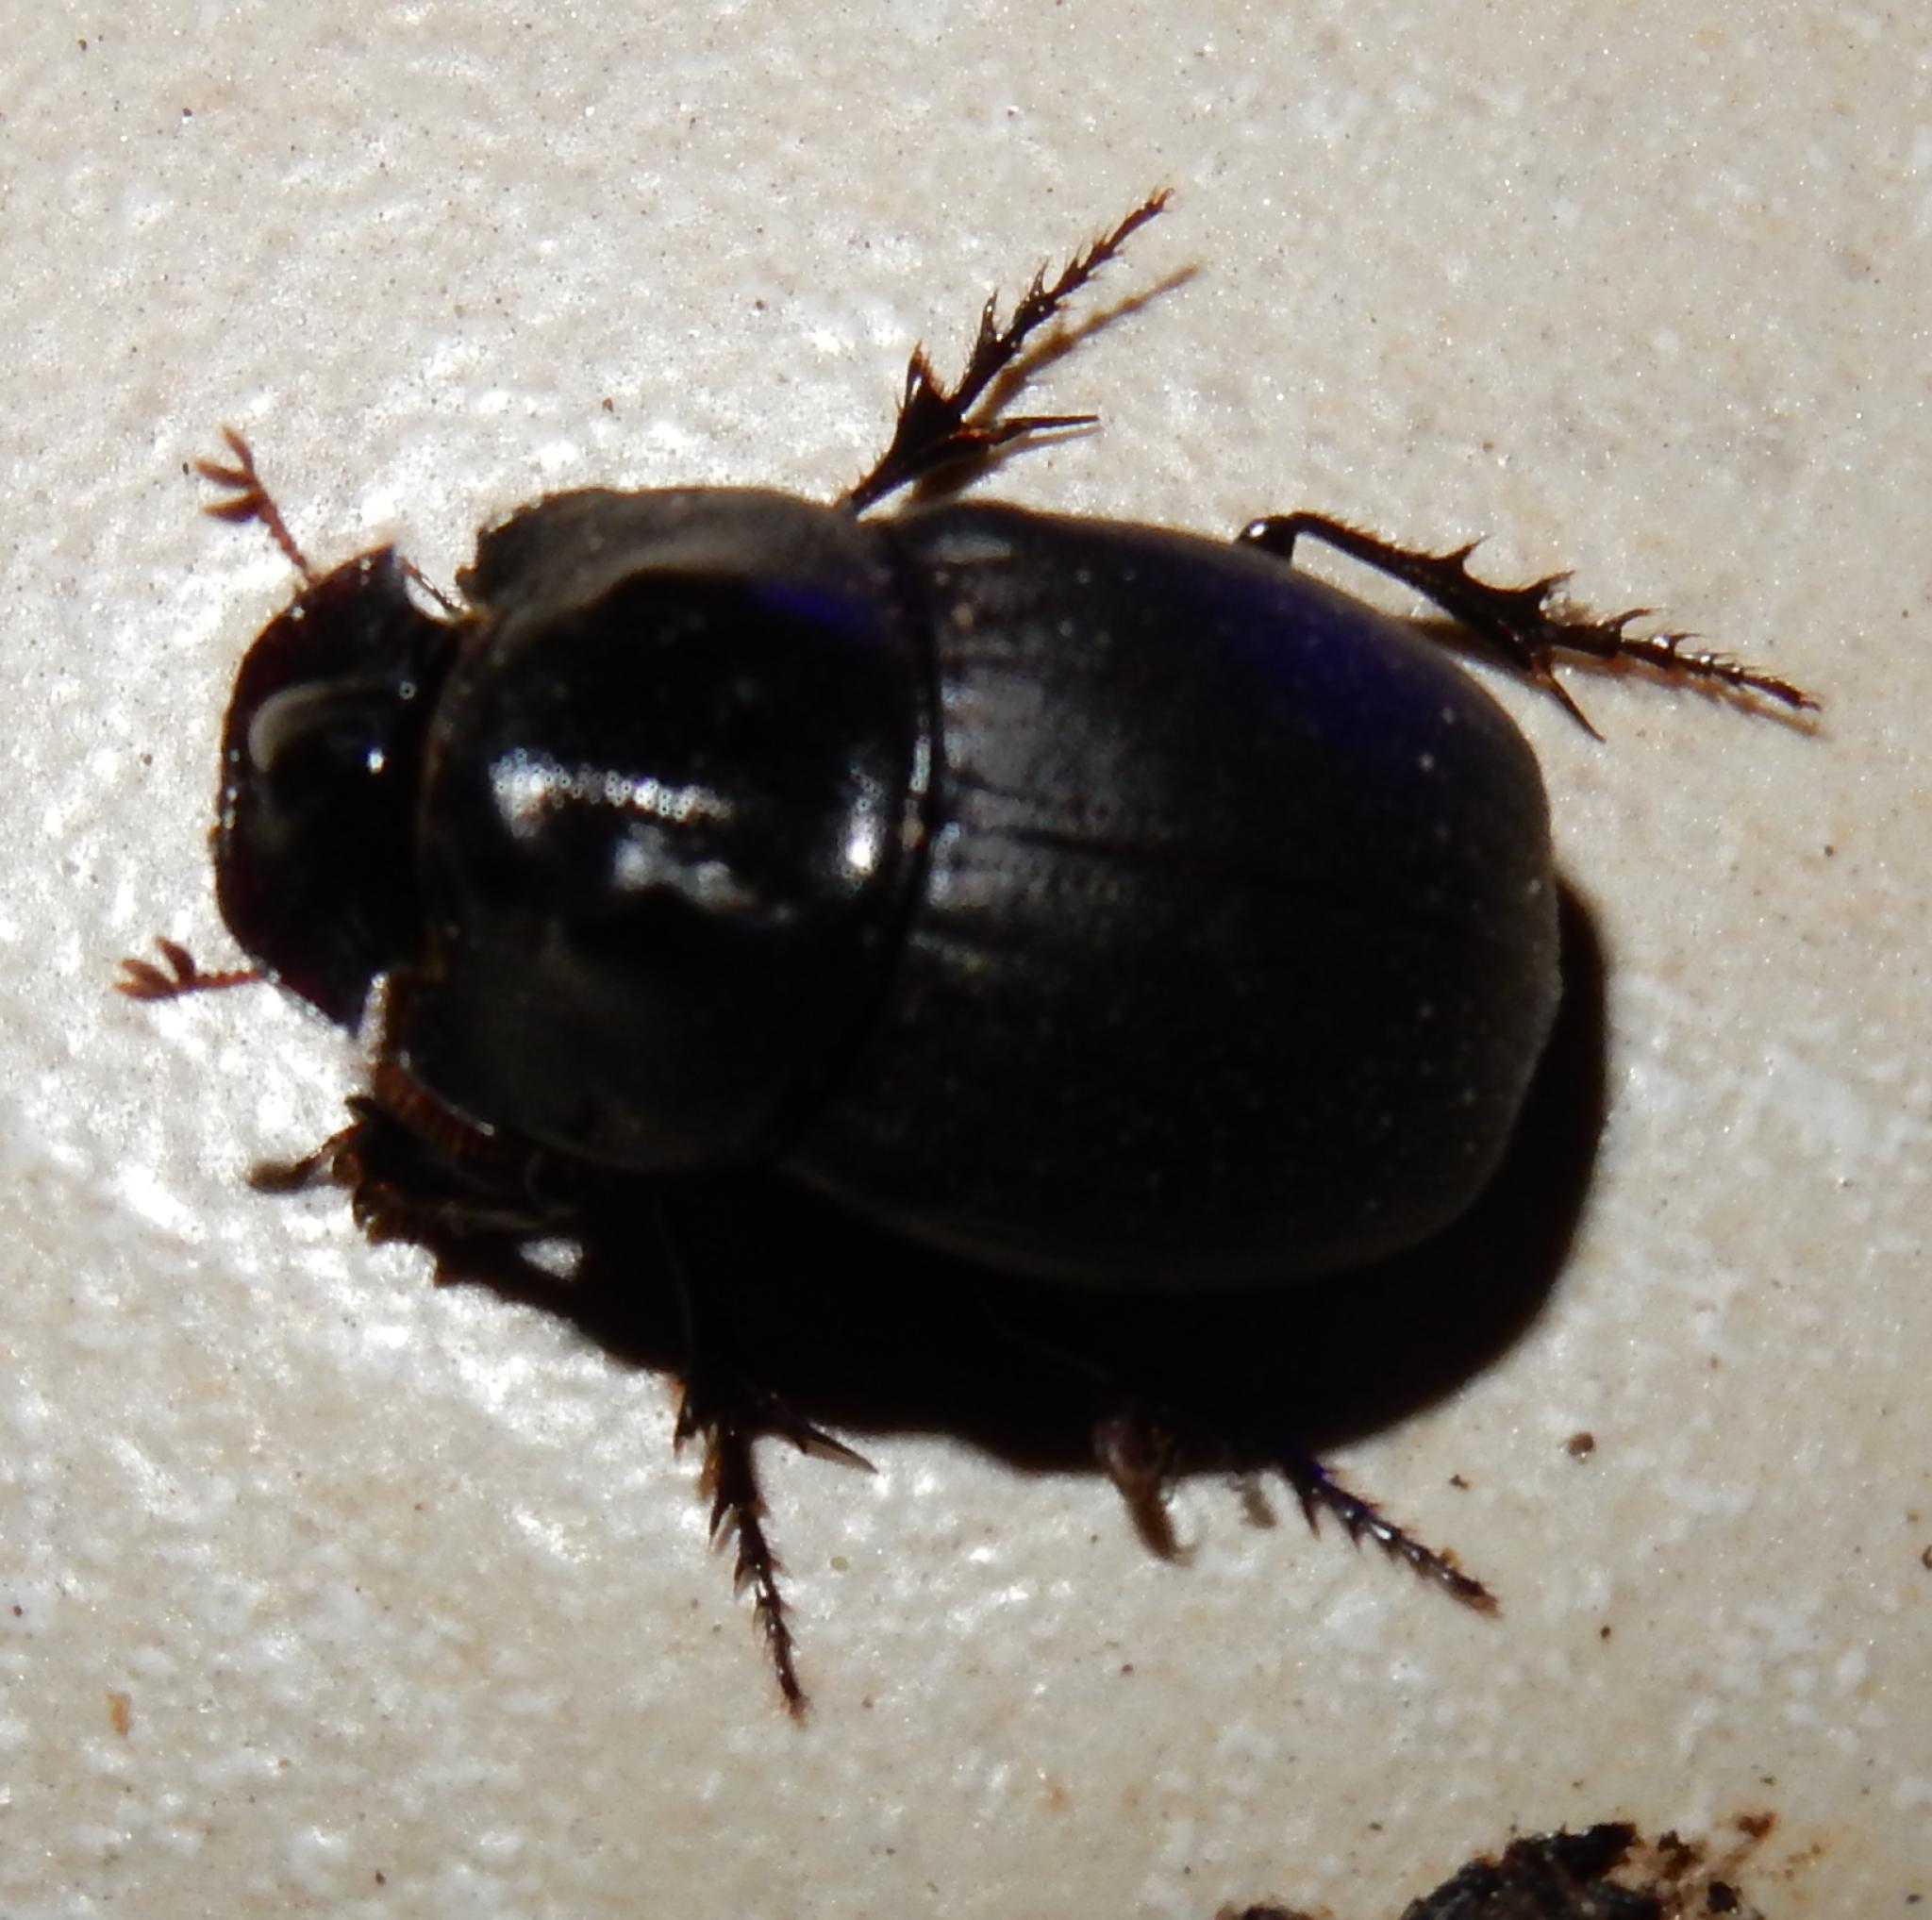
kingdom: Animalia
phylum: Arthropoda
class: Insecta
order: Coleoptera
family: Scarabaeidae
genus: Copris
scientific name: Copris fidius
